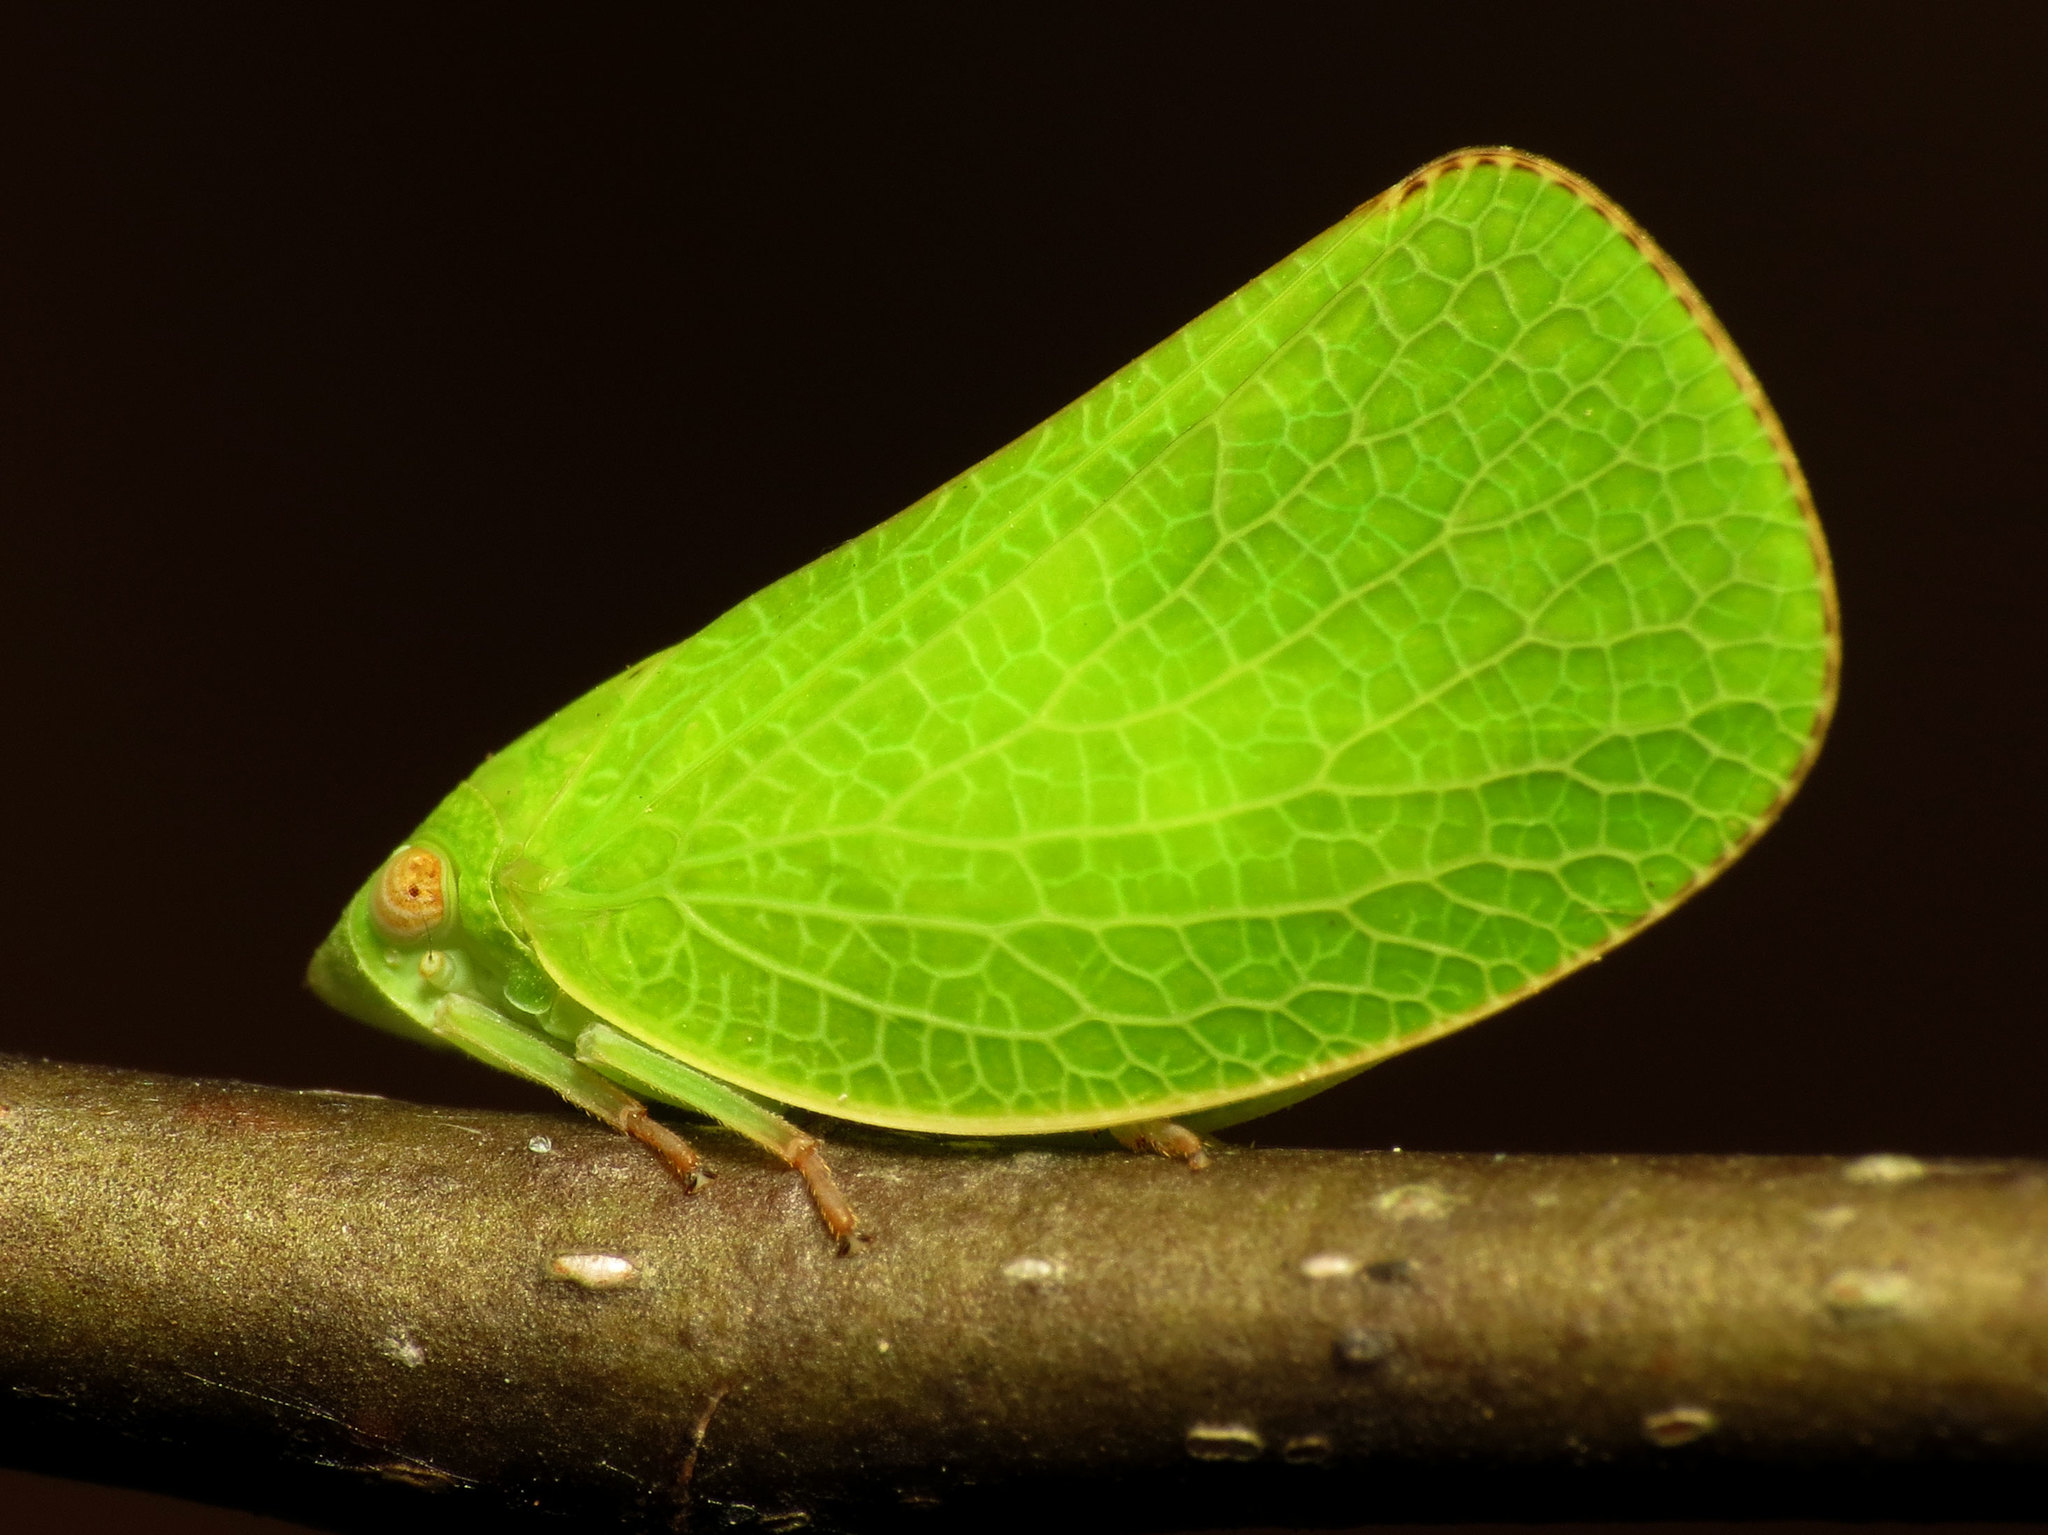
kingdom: Animalia
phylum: Arthropoda
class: Insecta
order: Hemiptera
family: Acanaloniidae
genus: Acanalonia
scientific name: Acanalonia conica
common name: Green cone-headed planthopper
